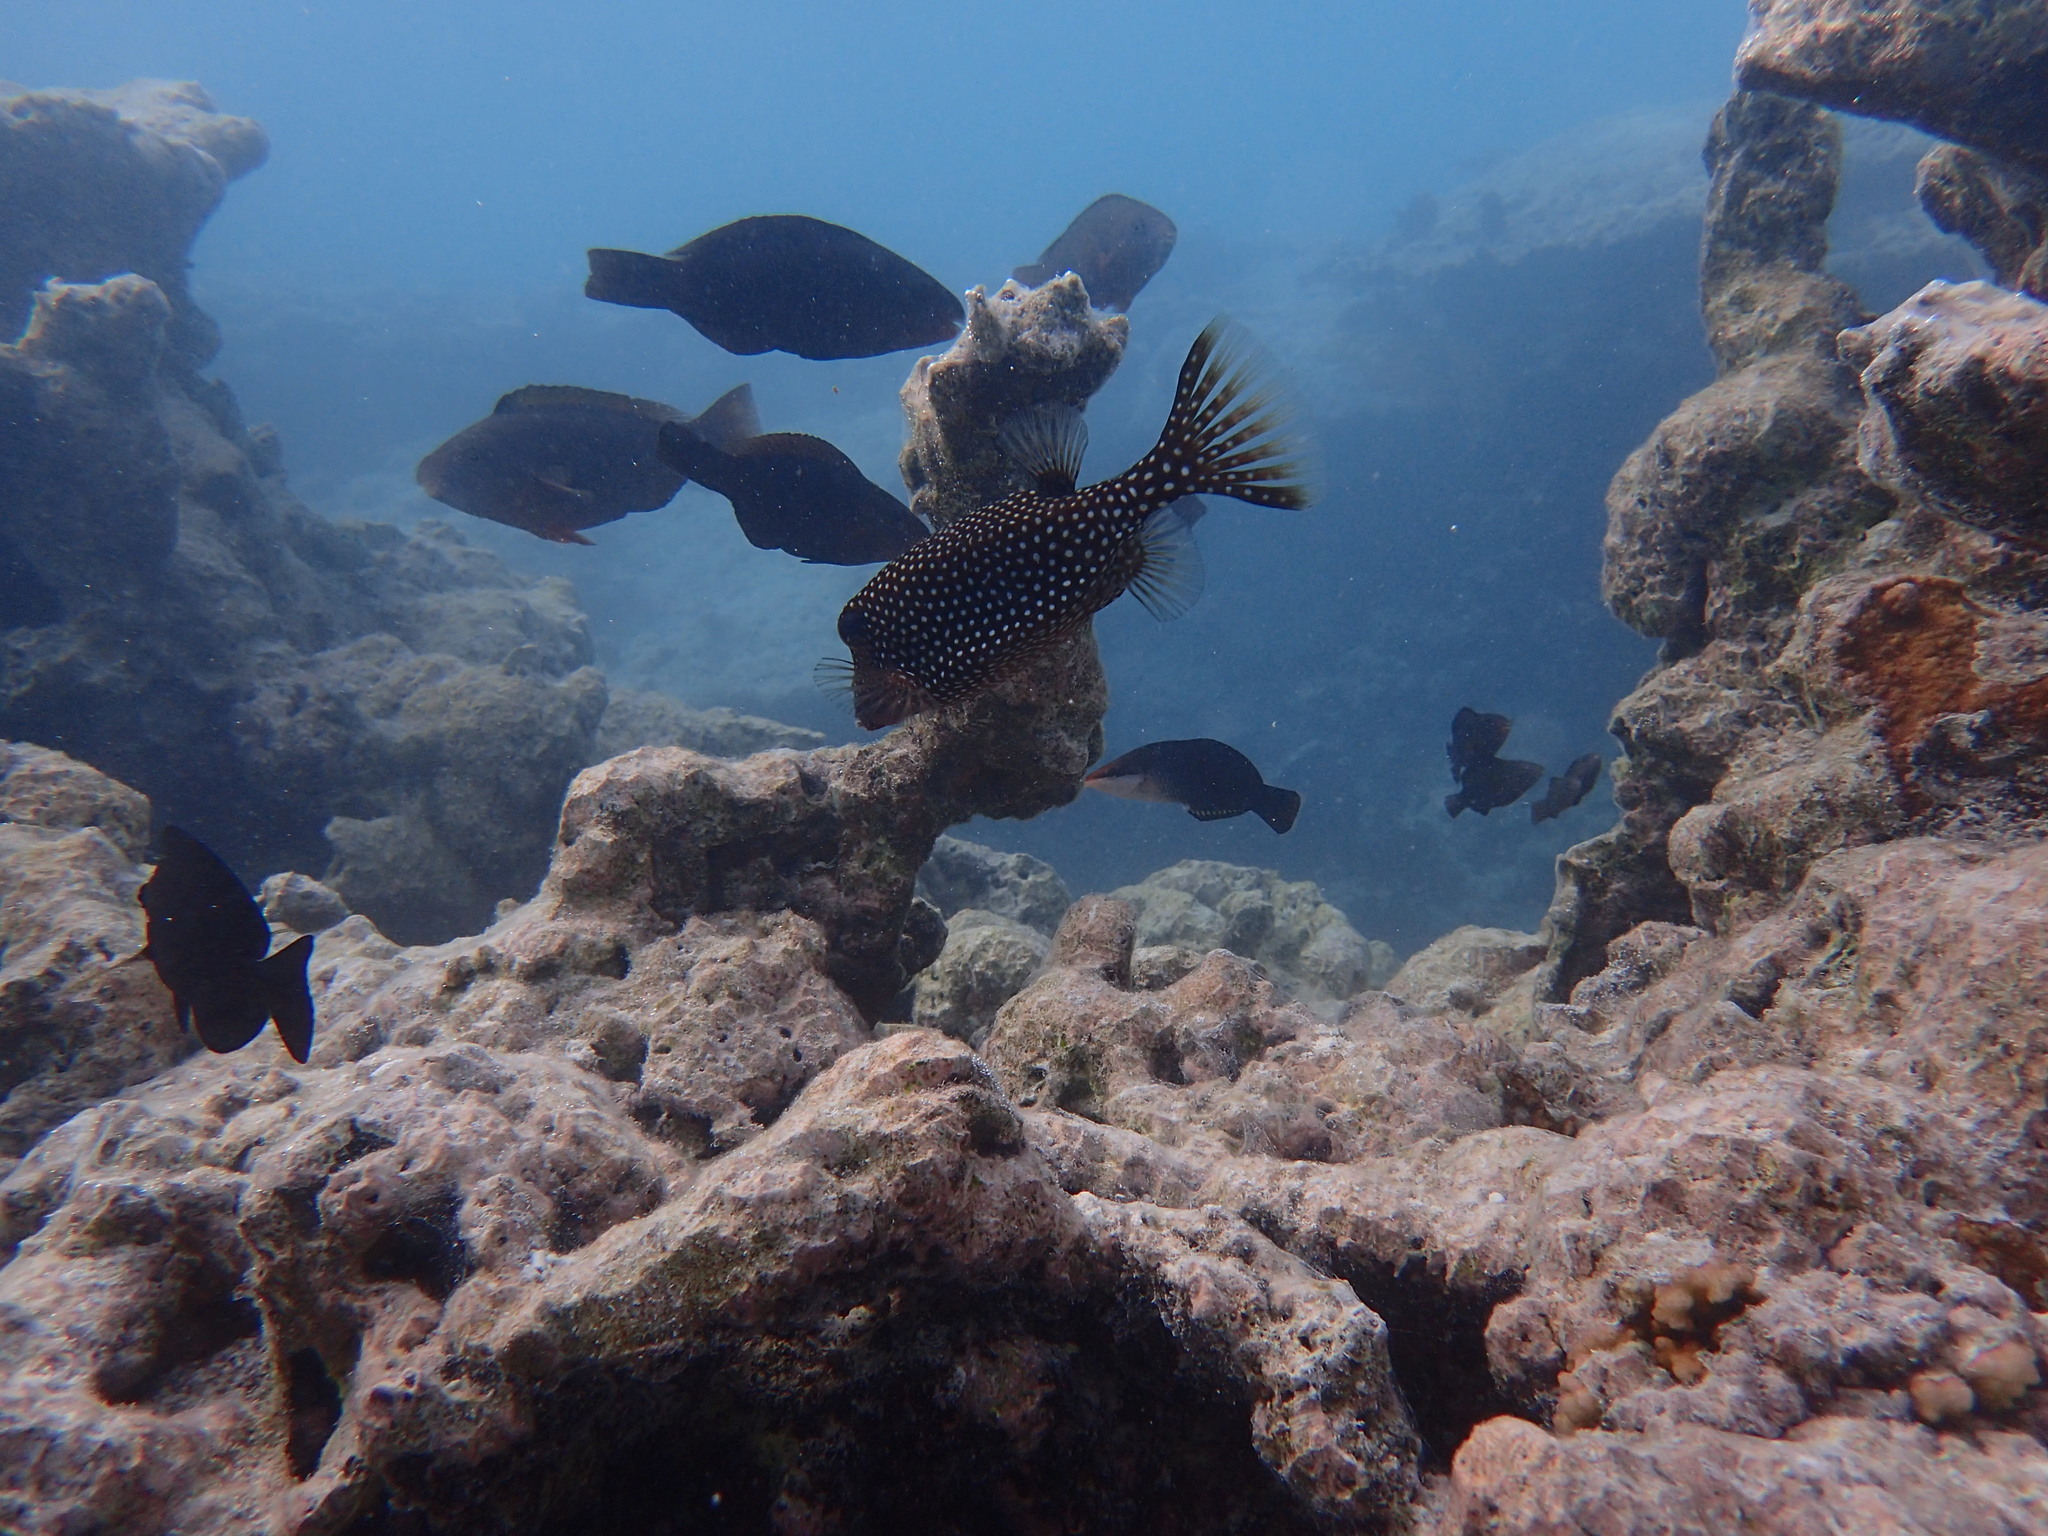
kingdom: Animalia
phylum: Chordata
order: Tetraodontiformes
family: Ostraciidae
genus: Ostracion
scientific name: Ostracion meleagris
